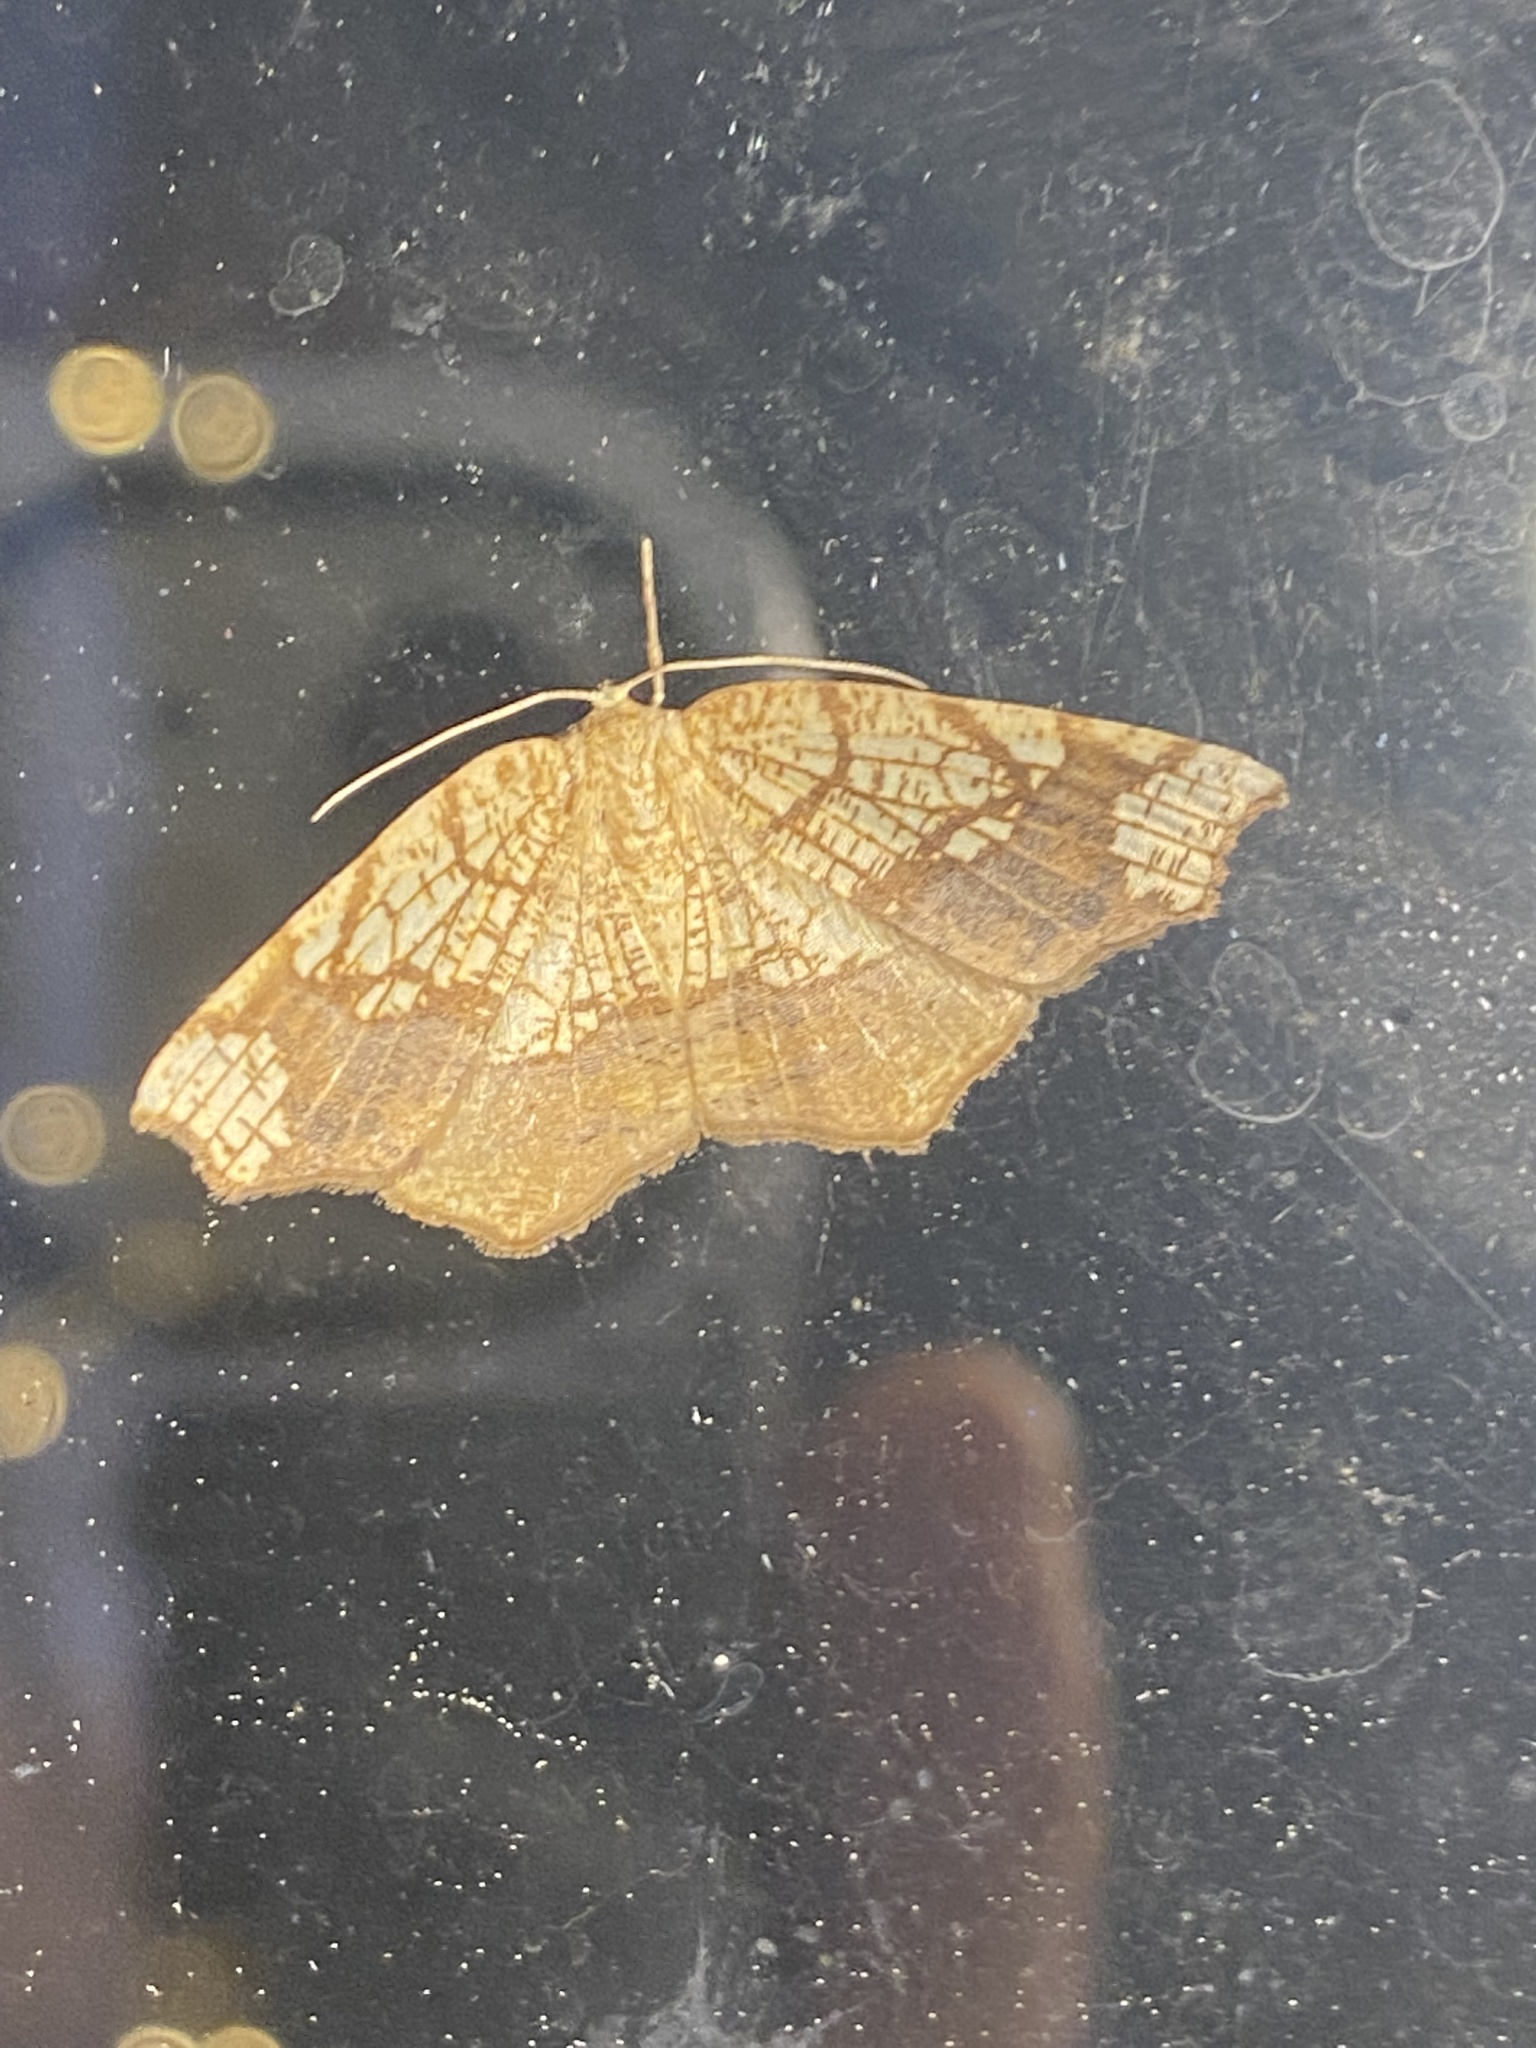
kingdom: Animalia
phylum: Arthropoda
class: Insecta
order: Lepidoptera
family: Geometridae
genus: Nematocampa
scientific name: Nematocampa resistaria
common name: Horned spanworm moth
